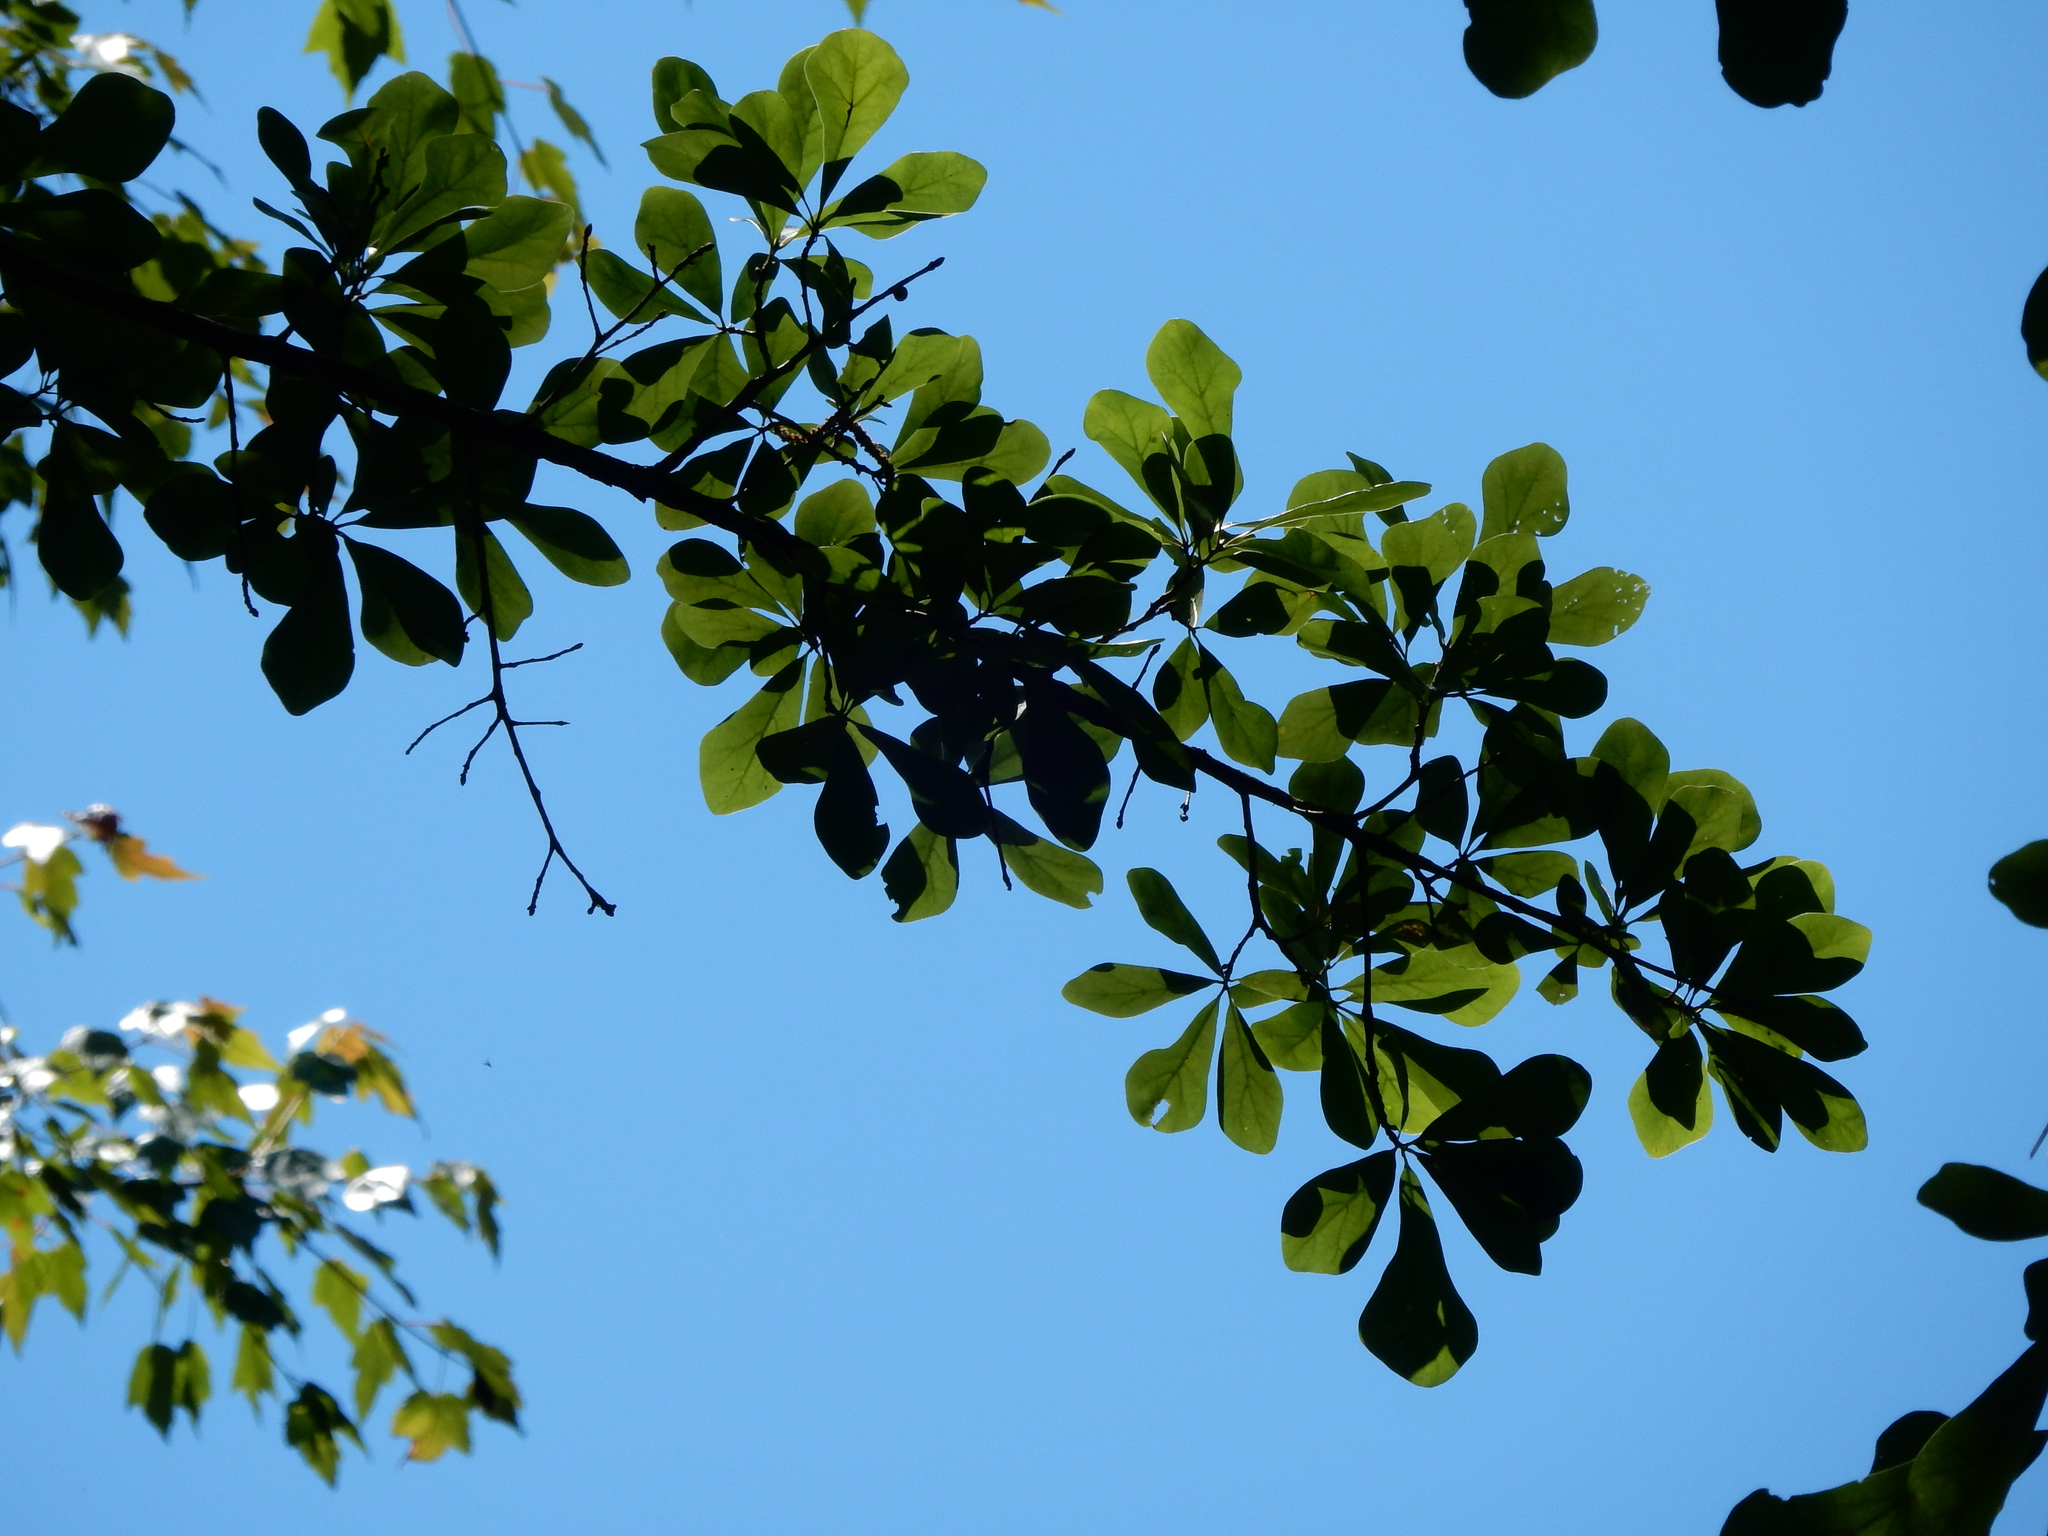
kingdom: Plantae
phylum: Tracheophyta
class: Magnoliopsida
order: Fagales
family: Fagaceae
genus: Quercus
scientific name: Quercus nigra
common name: Water oak
